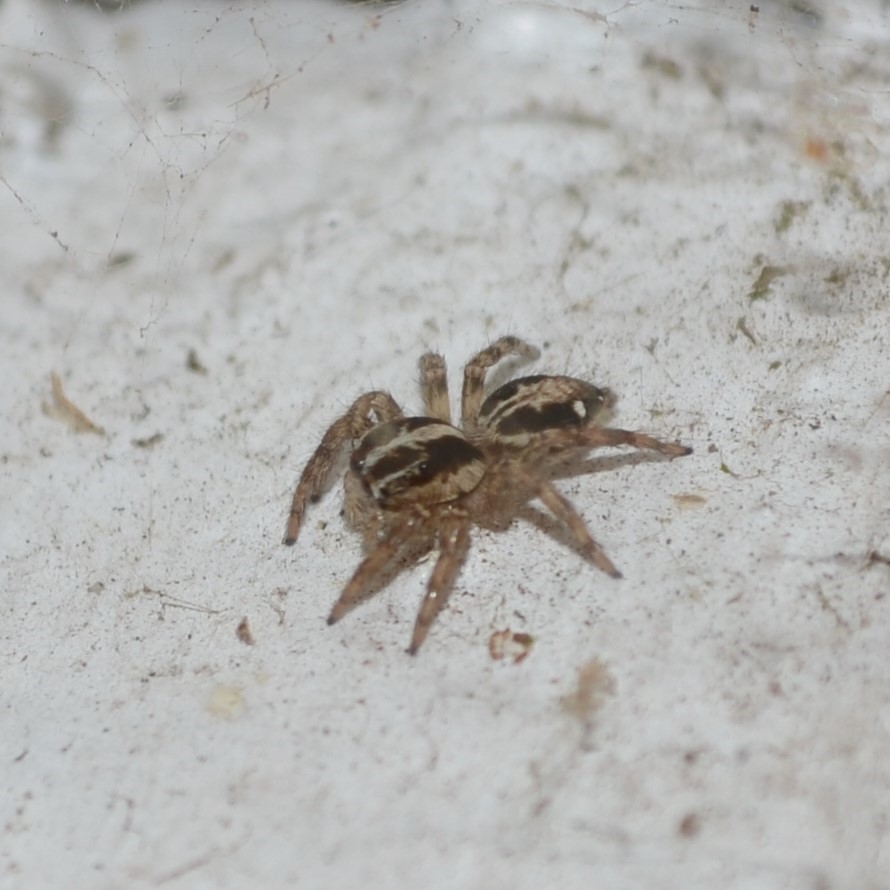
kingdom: Animalia
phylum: Arthropoda
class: Arachnida
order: Araneae
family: Salticidae
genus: Plexippus
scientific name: Plexippus paykulli
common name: Pantropical jumper
